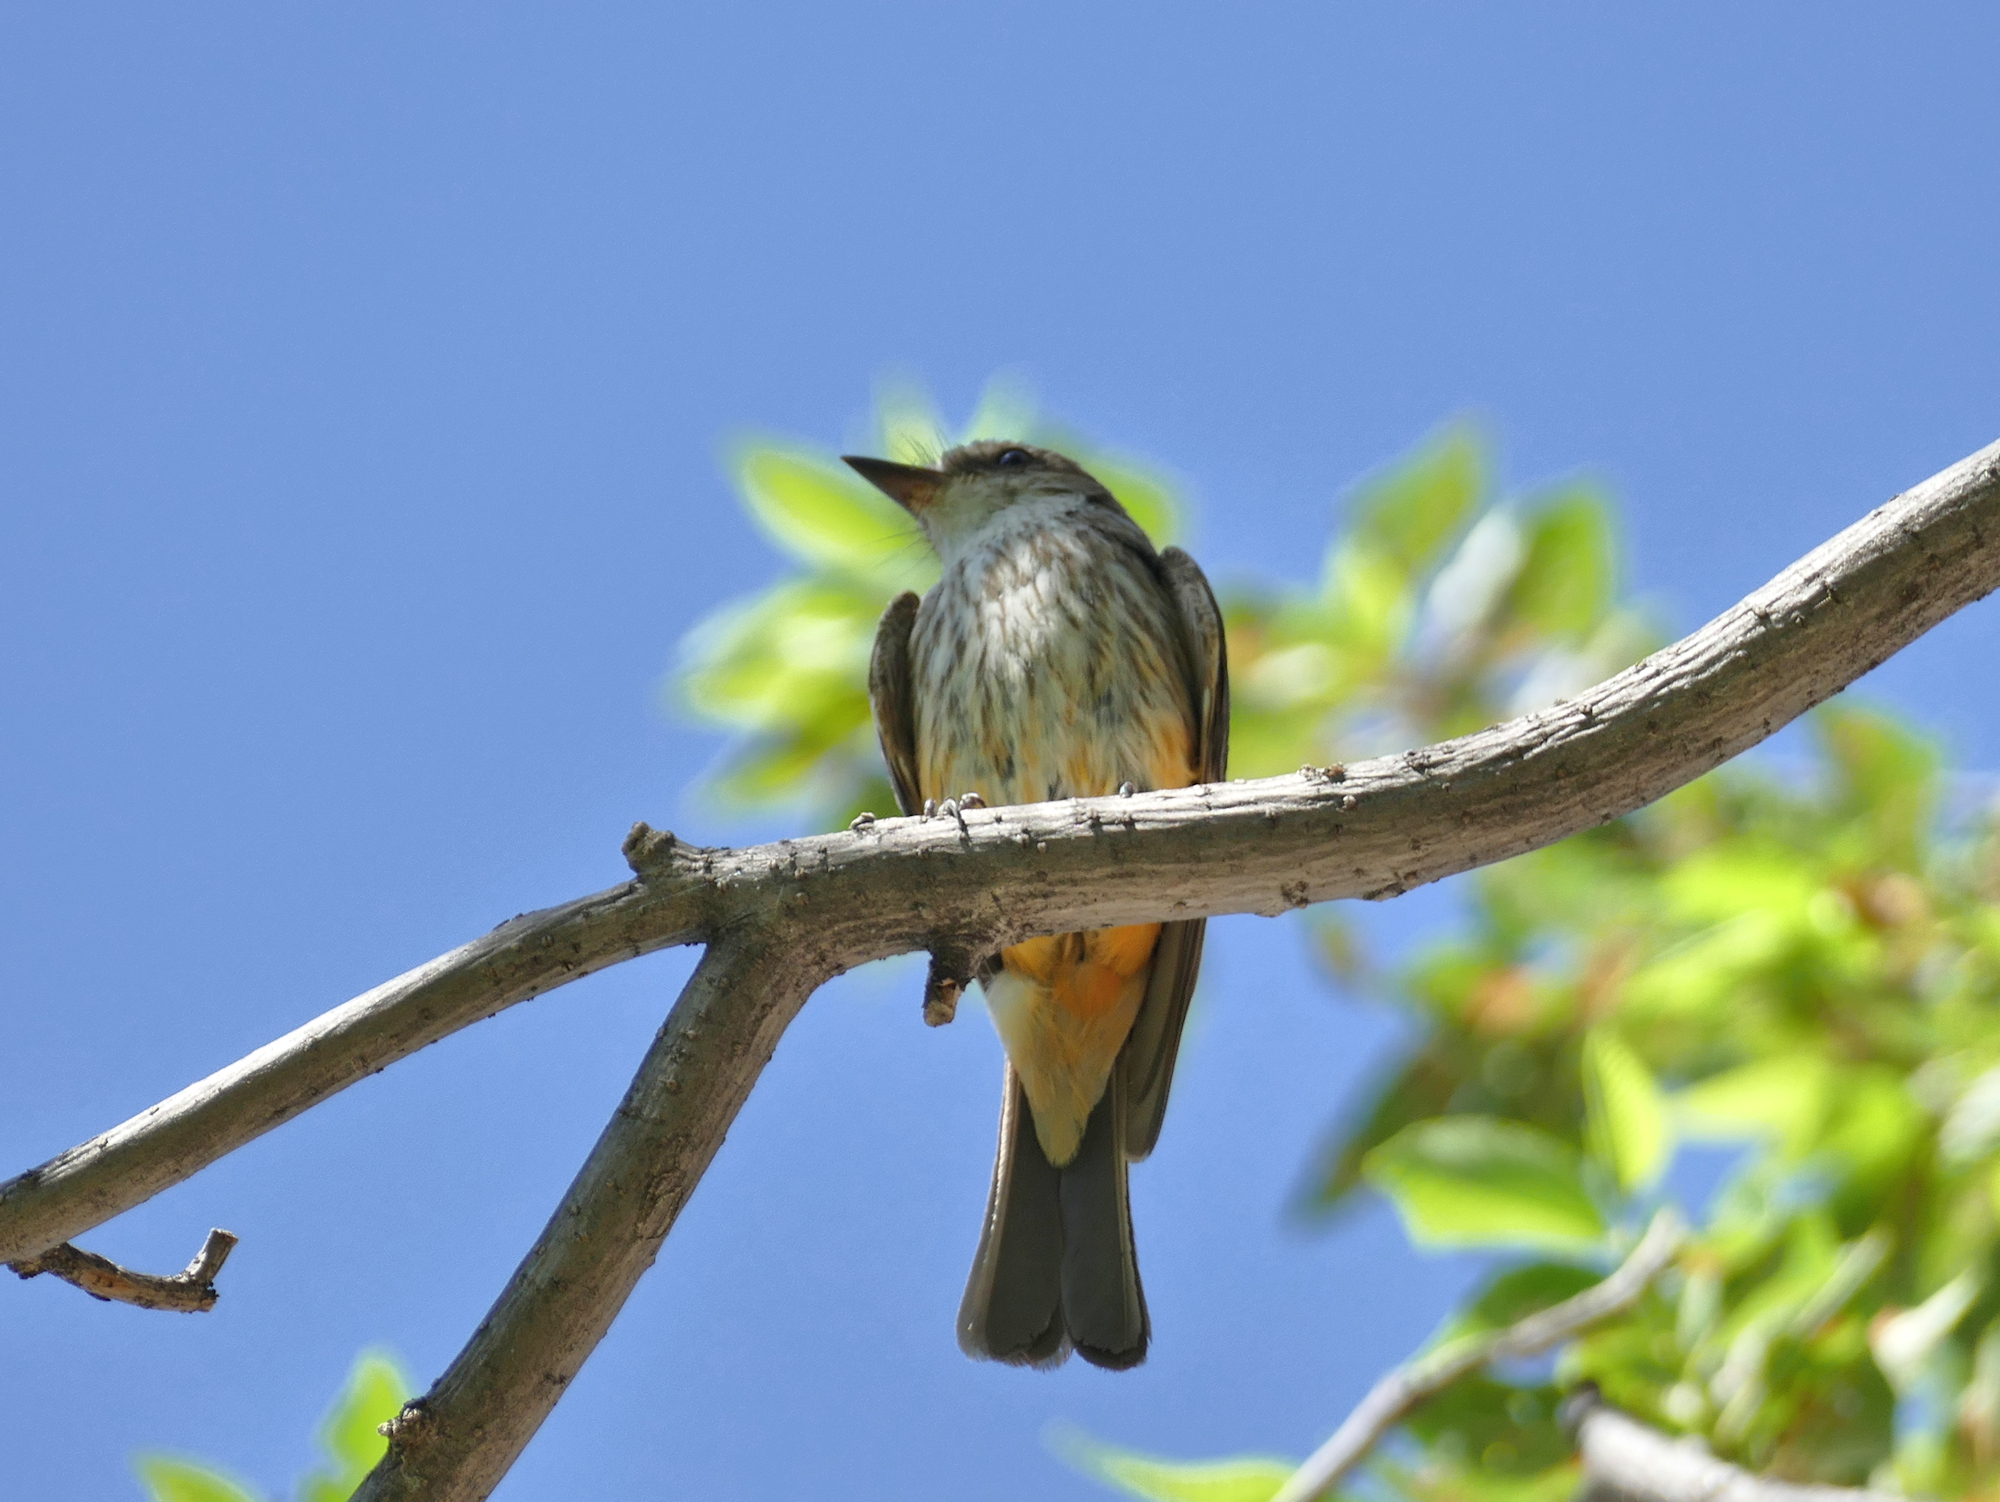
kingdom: Animalia
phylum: Chordata
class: Aves
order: Passeriformes
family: Tyrannidae
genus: Pyrocephalus
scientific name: Pyrocephalus rubinus
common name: Vermilion flycatcher
